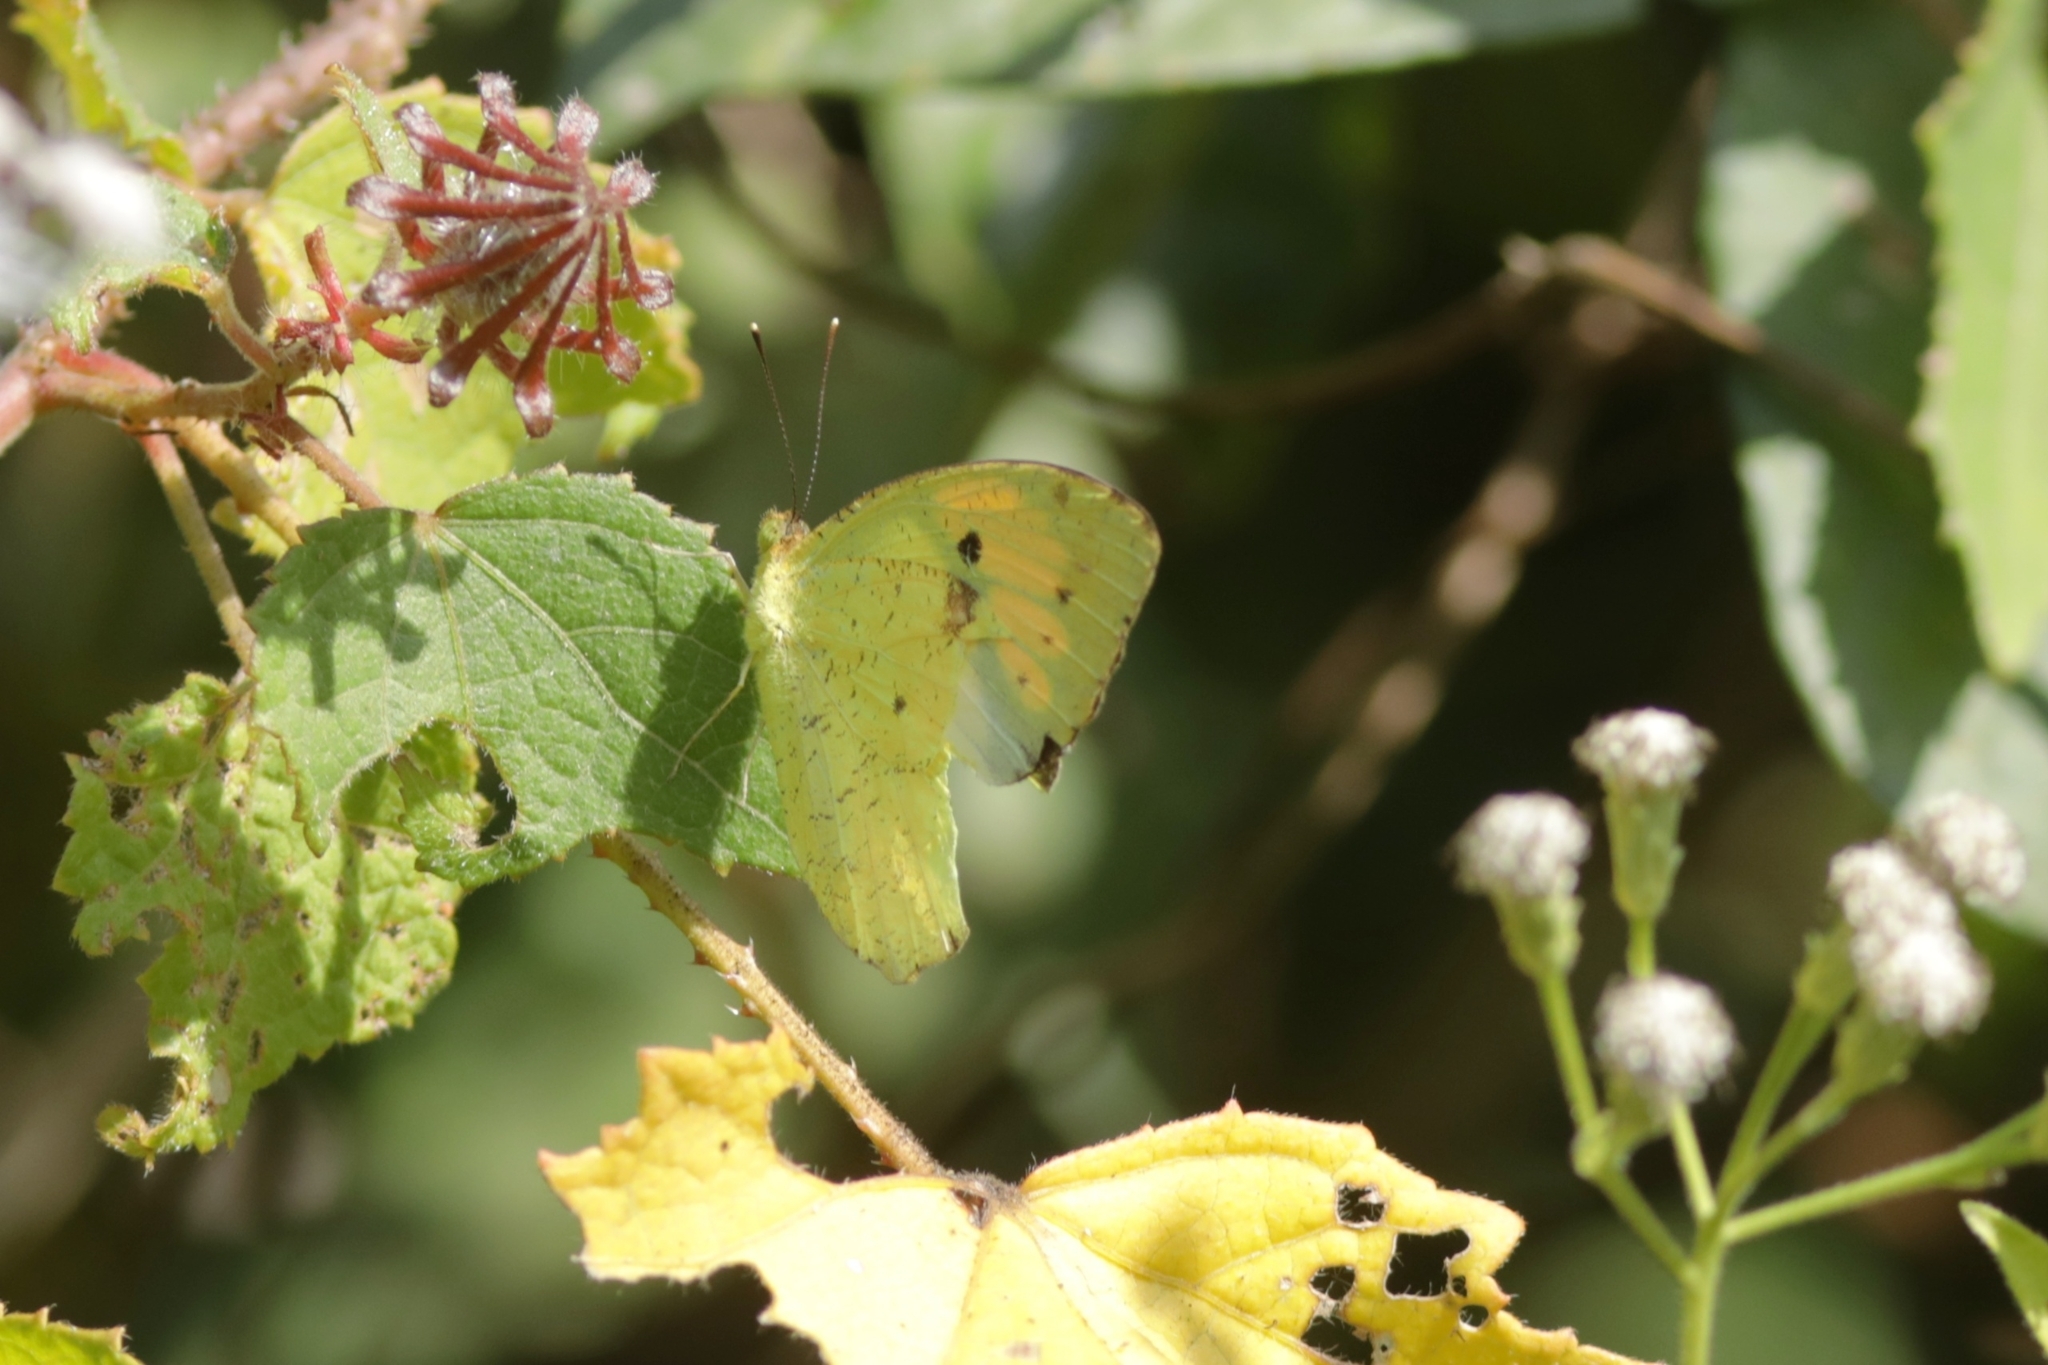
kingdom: Animalia
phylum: Arthropoda
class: Insecta
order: Lepidoptera
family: Pieridae
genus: Ixias
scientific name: Ixias pyrene
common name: Yellow orange tip
